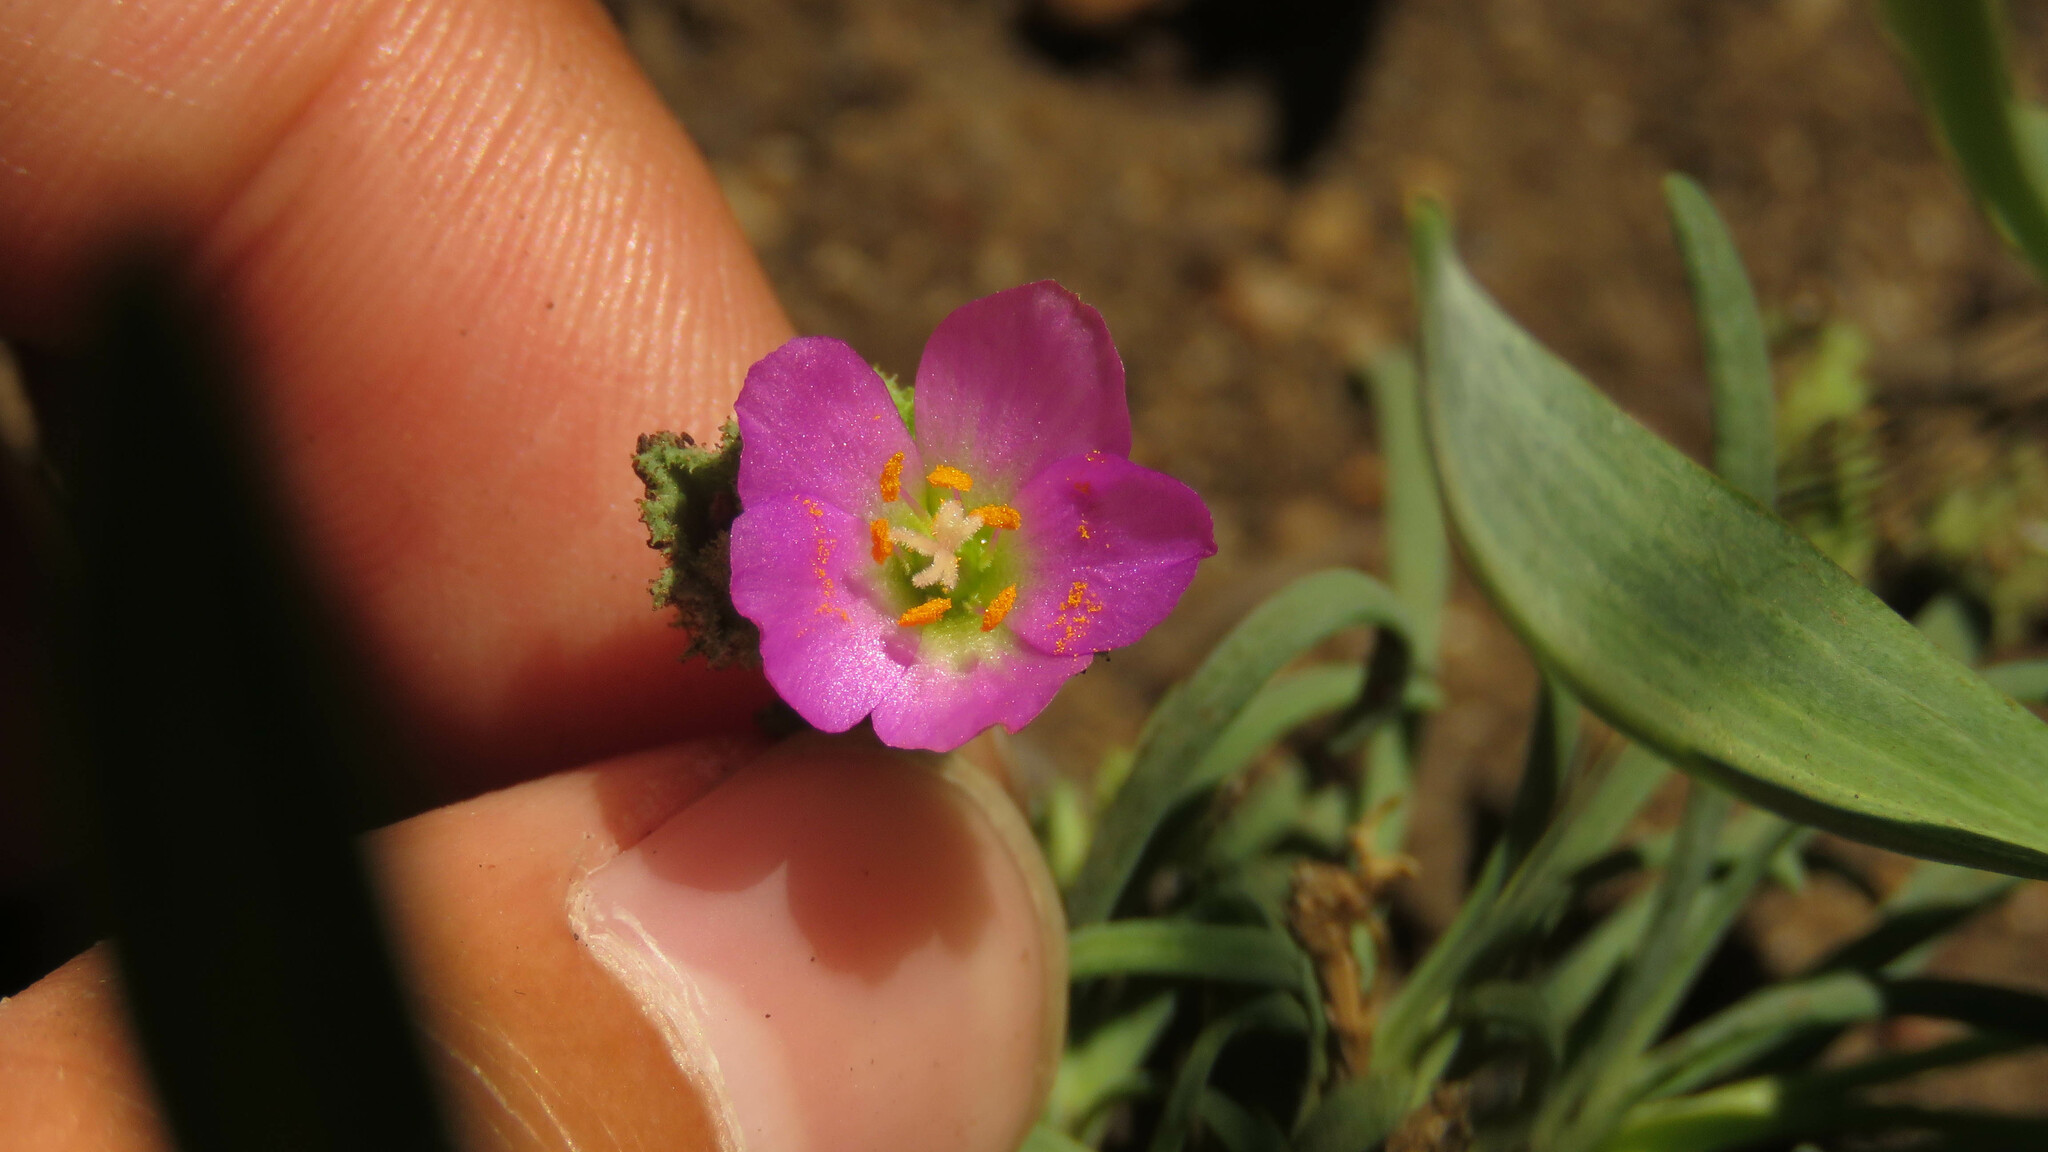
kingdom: Plantae
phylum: Tracheophyta
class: Magnoliopsida
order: Caryophyllales
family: Montiaceae
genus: Montiopsis
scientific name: Montiopsis gayana
